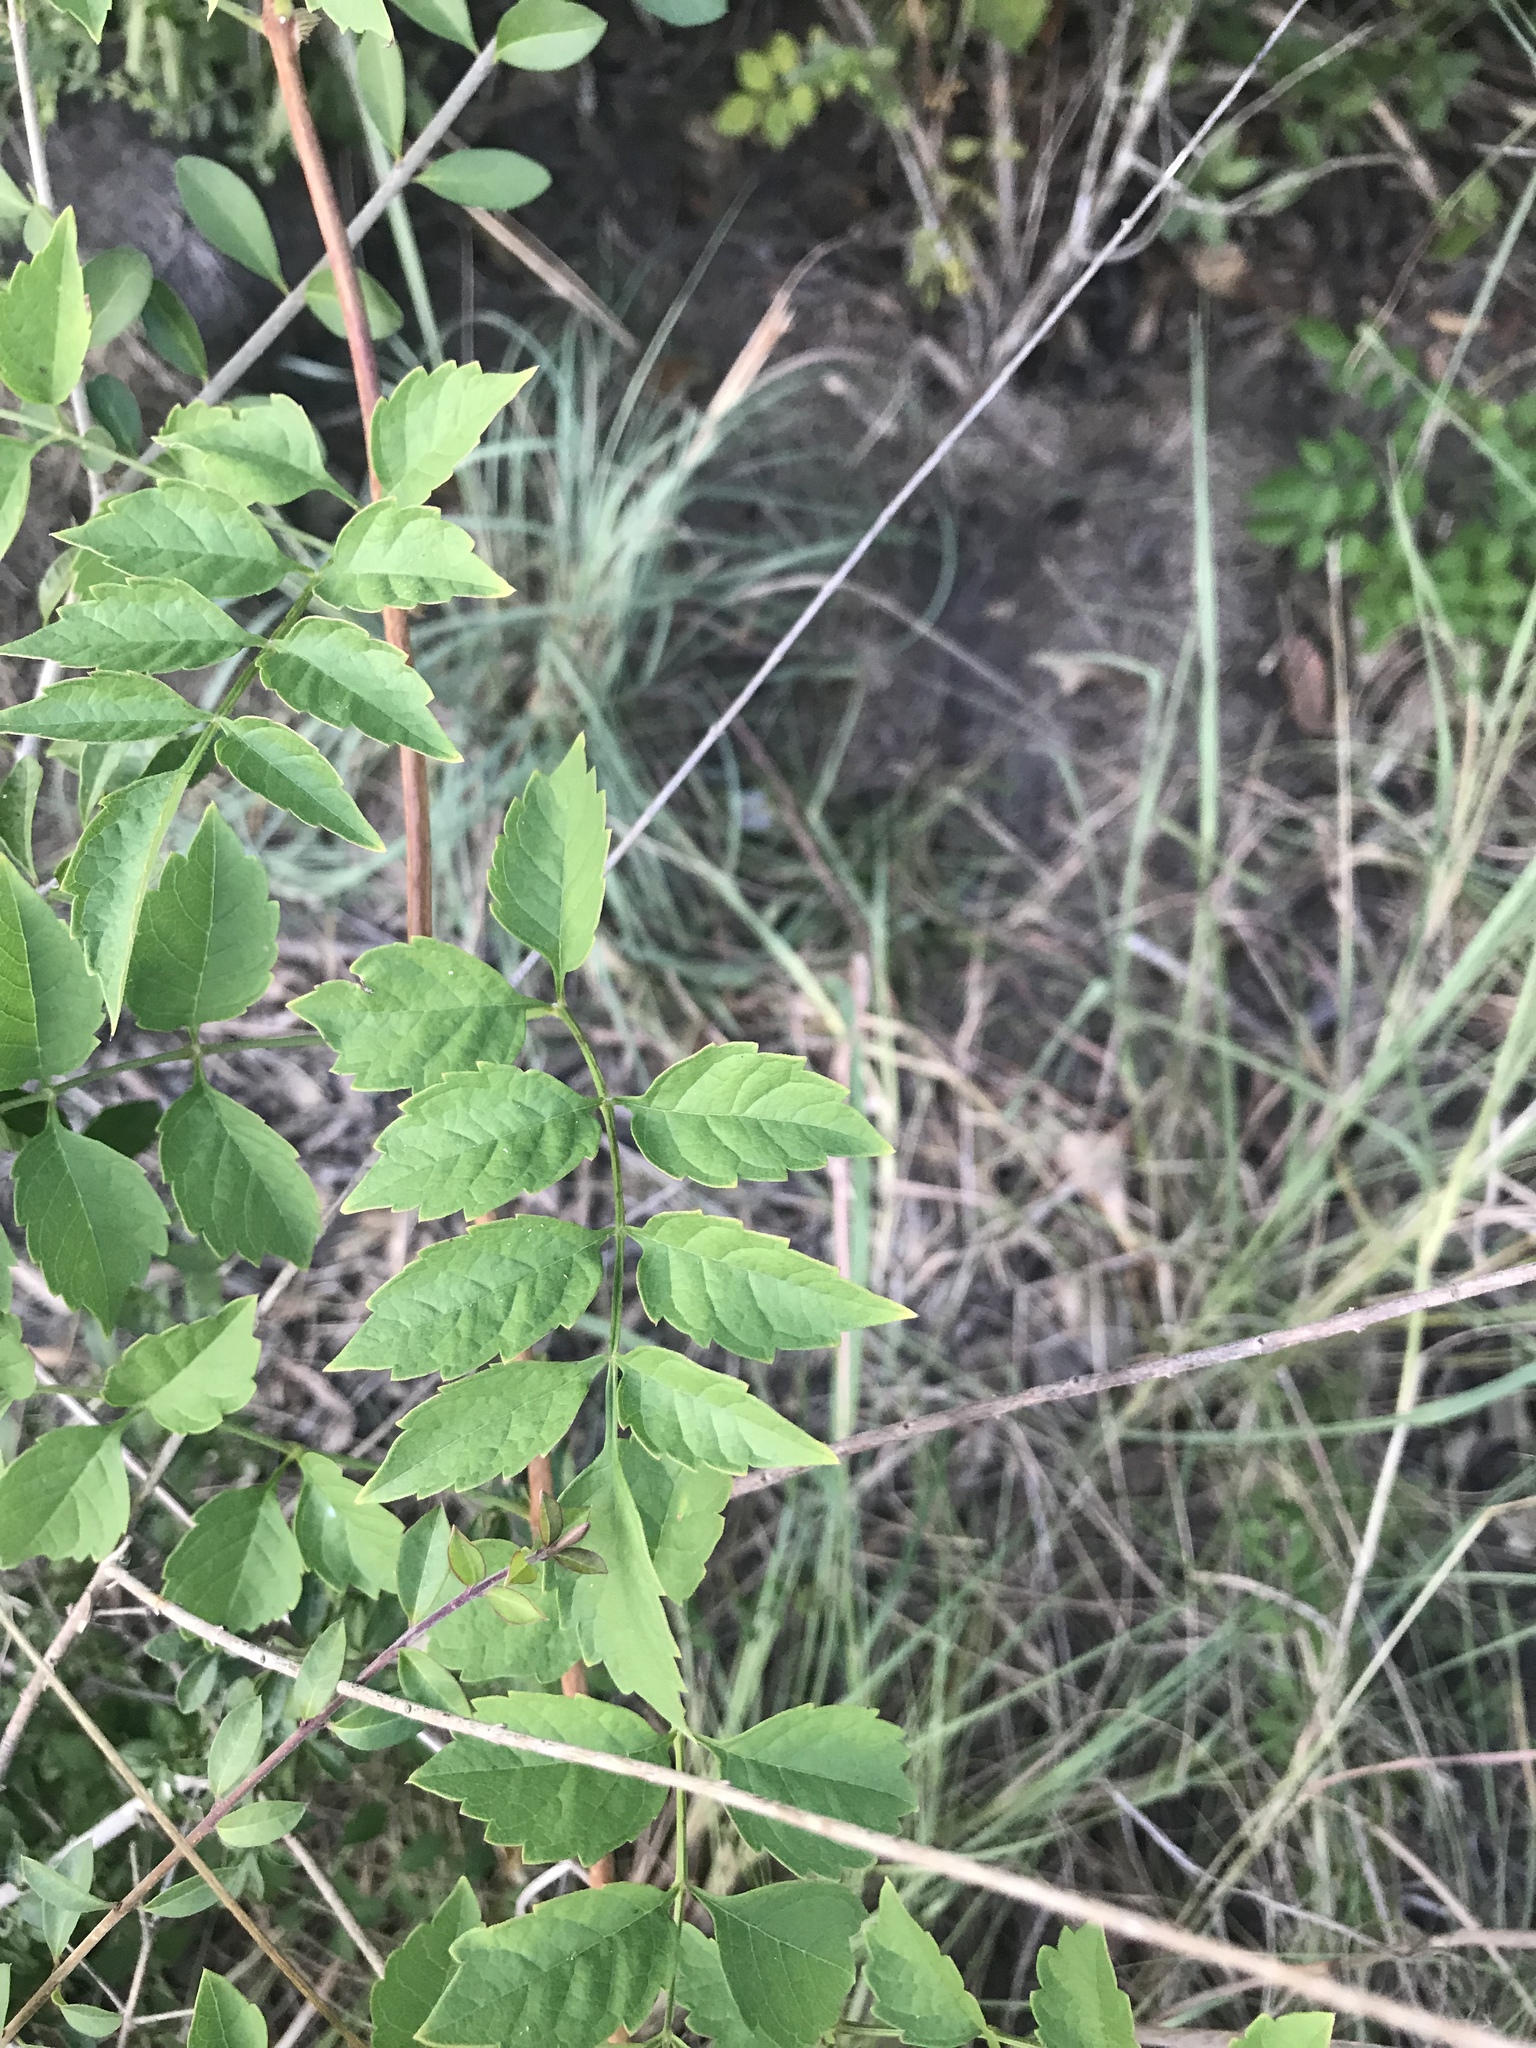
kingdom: Plantae
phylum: Tracheophyta
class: Magnoliopsida
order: Lamiales
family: Bignoniaceae
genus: Campsis
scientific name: Campsis radicans
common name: Trumpet-creeper
